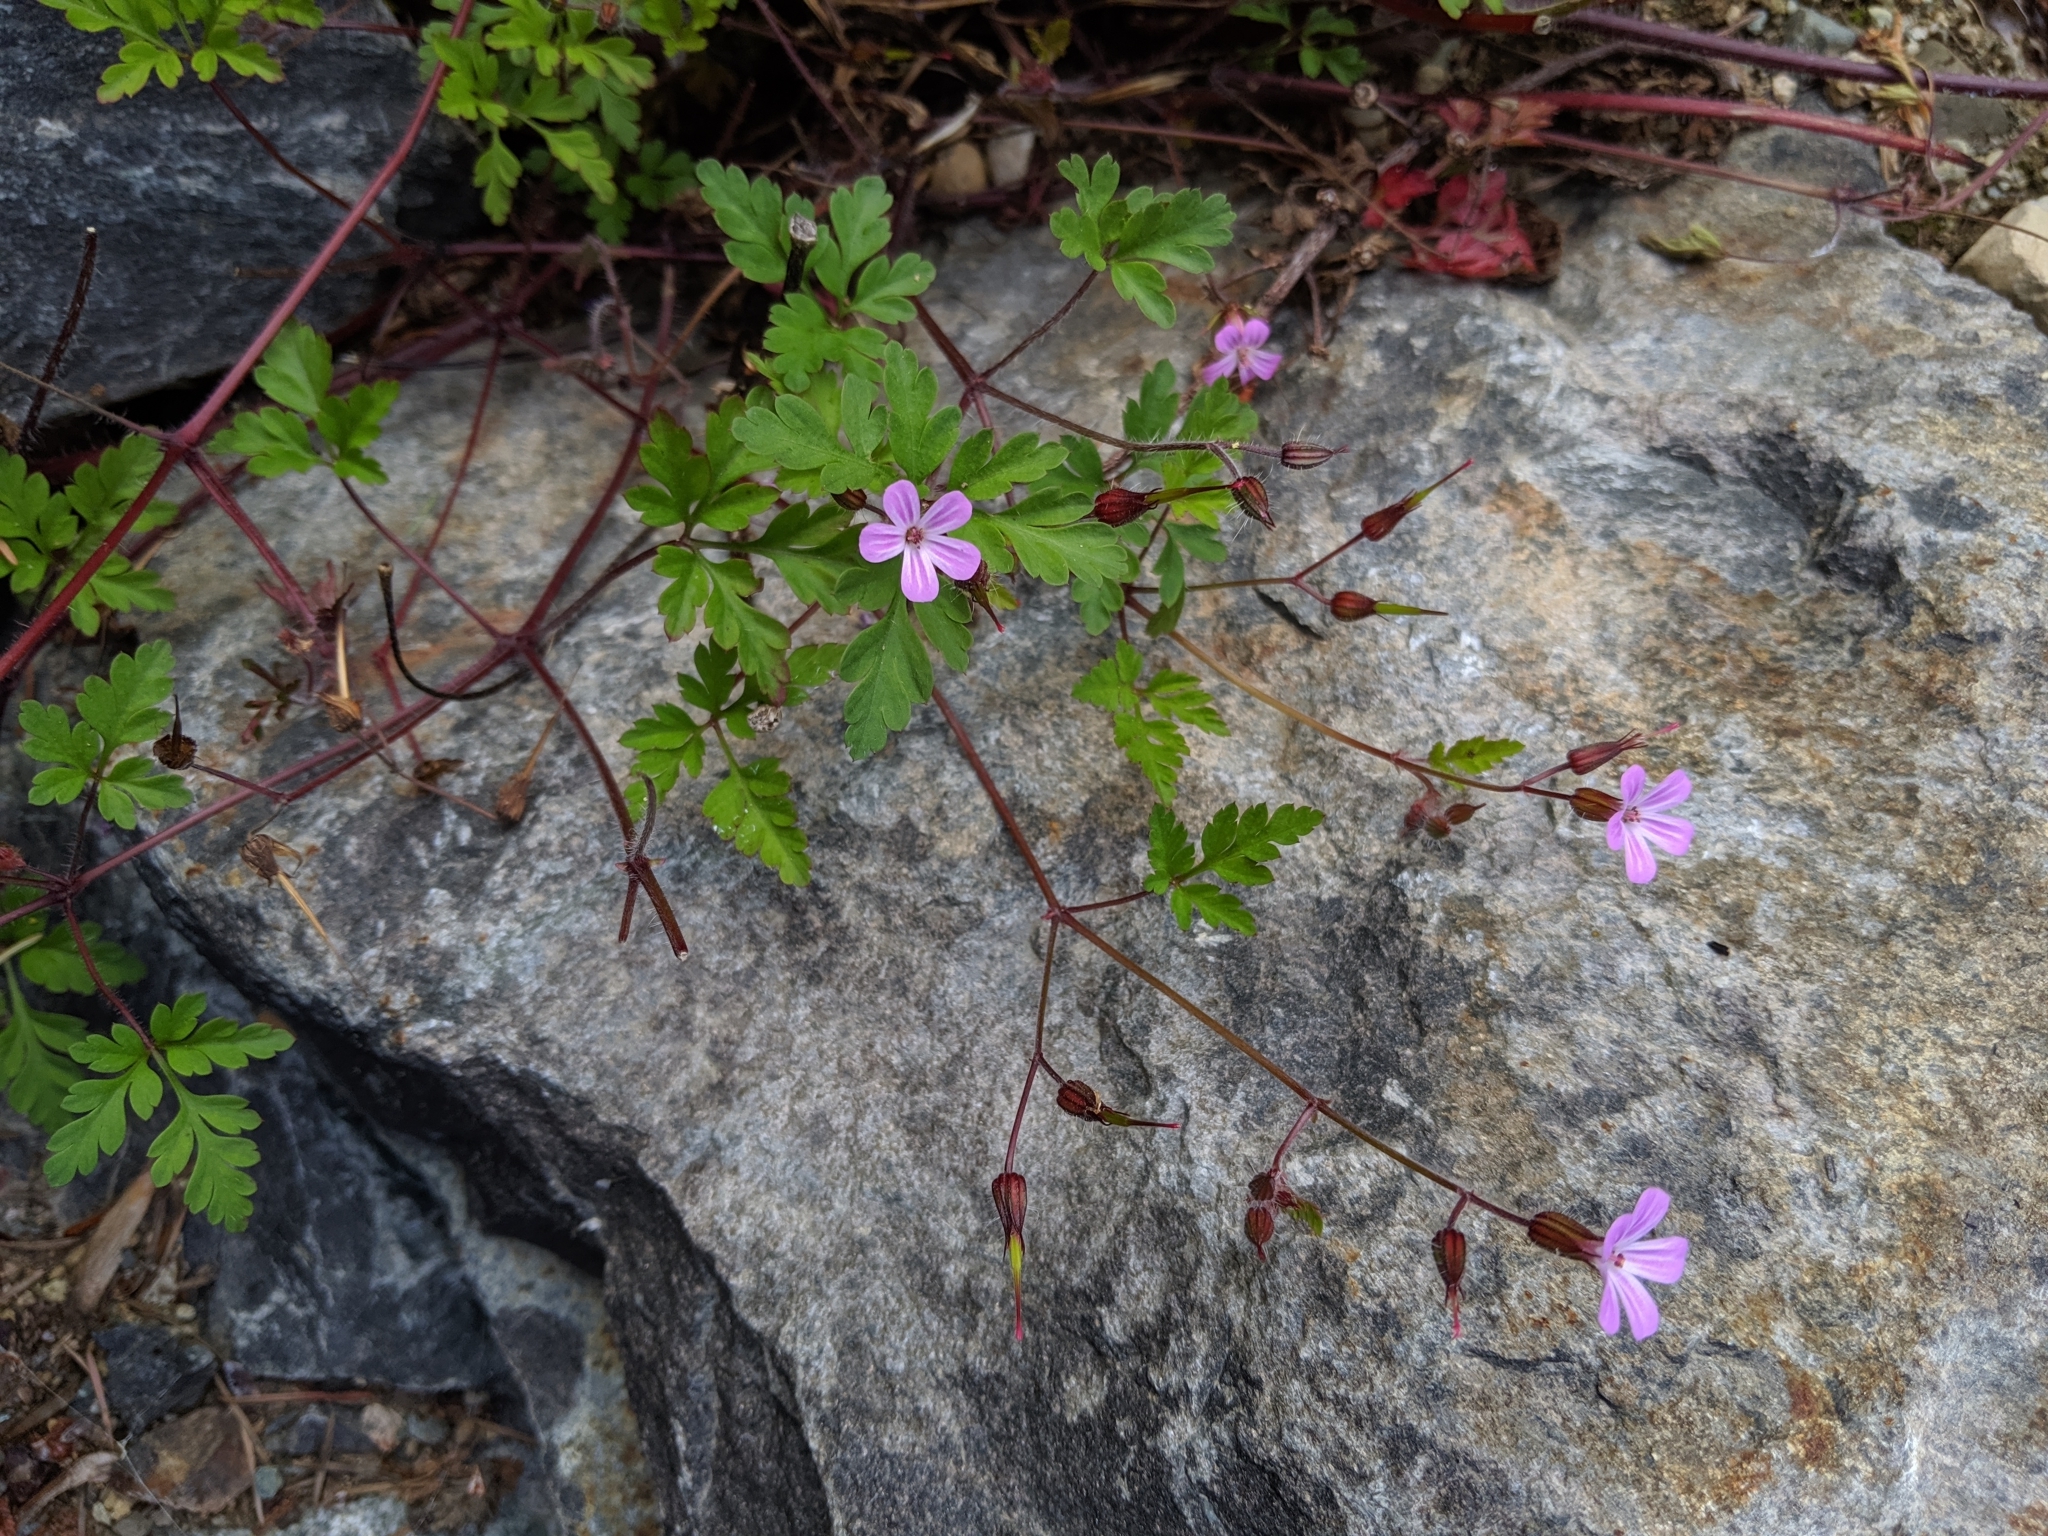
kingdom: Plantae
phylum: Tracheophyta
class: Magnoliopsida
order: Geraniales
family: Geraniaceae
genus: Geranium
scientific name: Geranium robertianum
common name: Herb-robert
